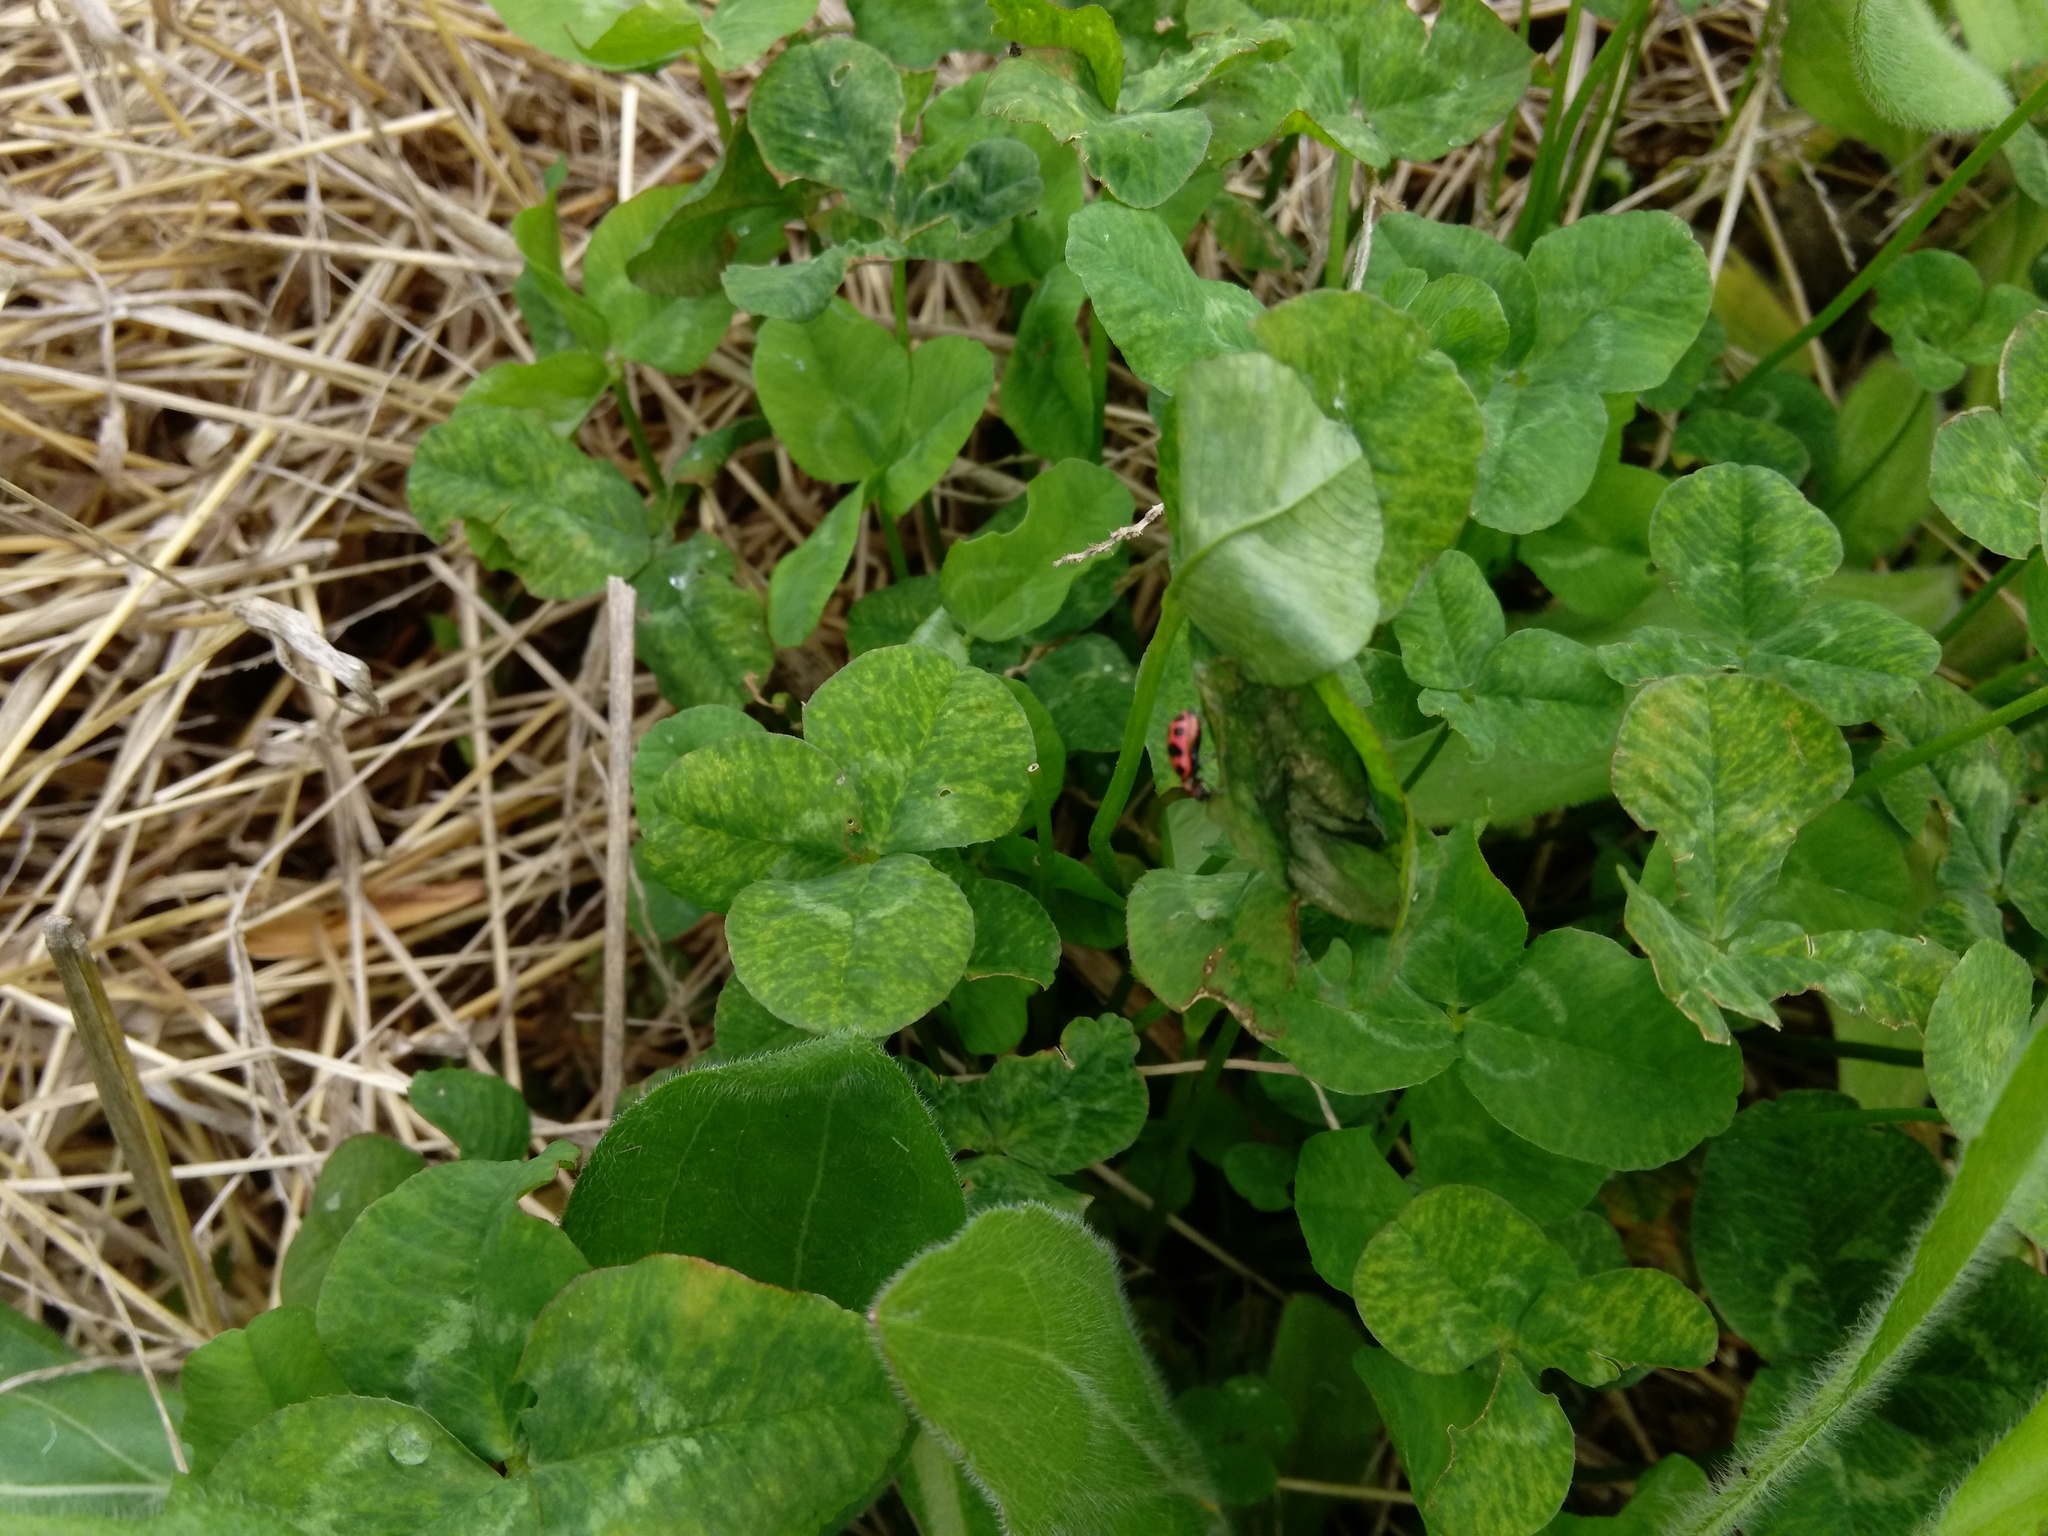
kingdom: Animalia
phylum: Arthropoda
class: Insecta
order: Coleoptera
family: Coccinellidae
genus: Coleomegilla
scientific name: Coleomegilla maculata
